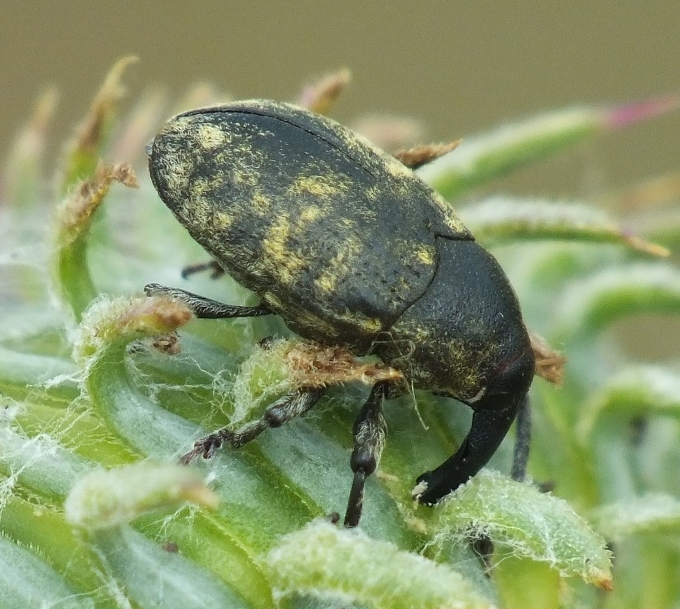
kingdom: Animalia
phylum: Arthropoda
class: Insecta
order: Coleoptera
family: Curculionidae
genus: Larinus
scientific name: Larinus iaceae
